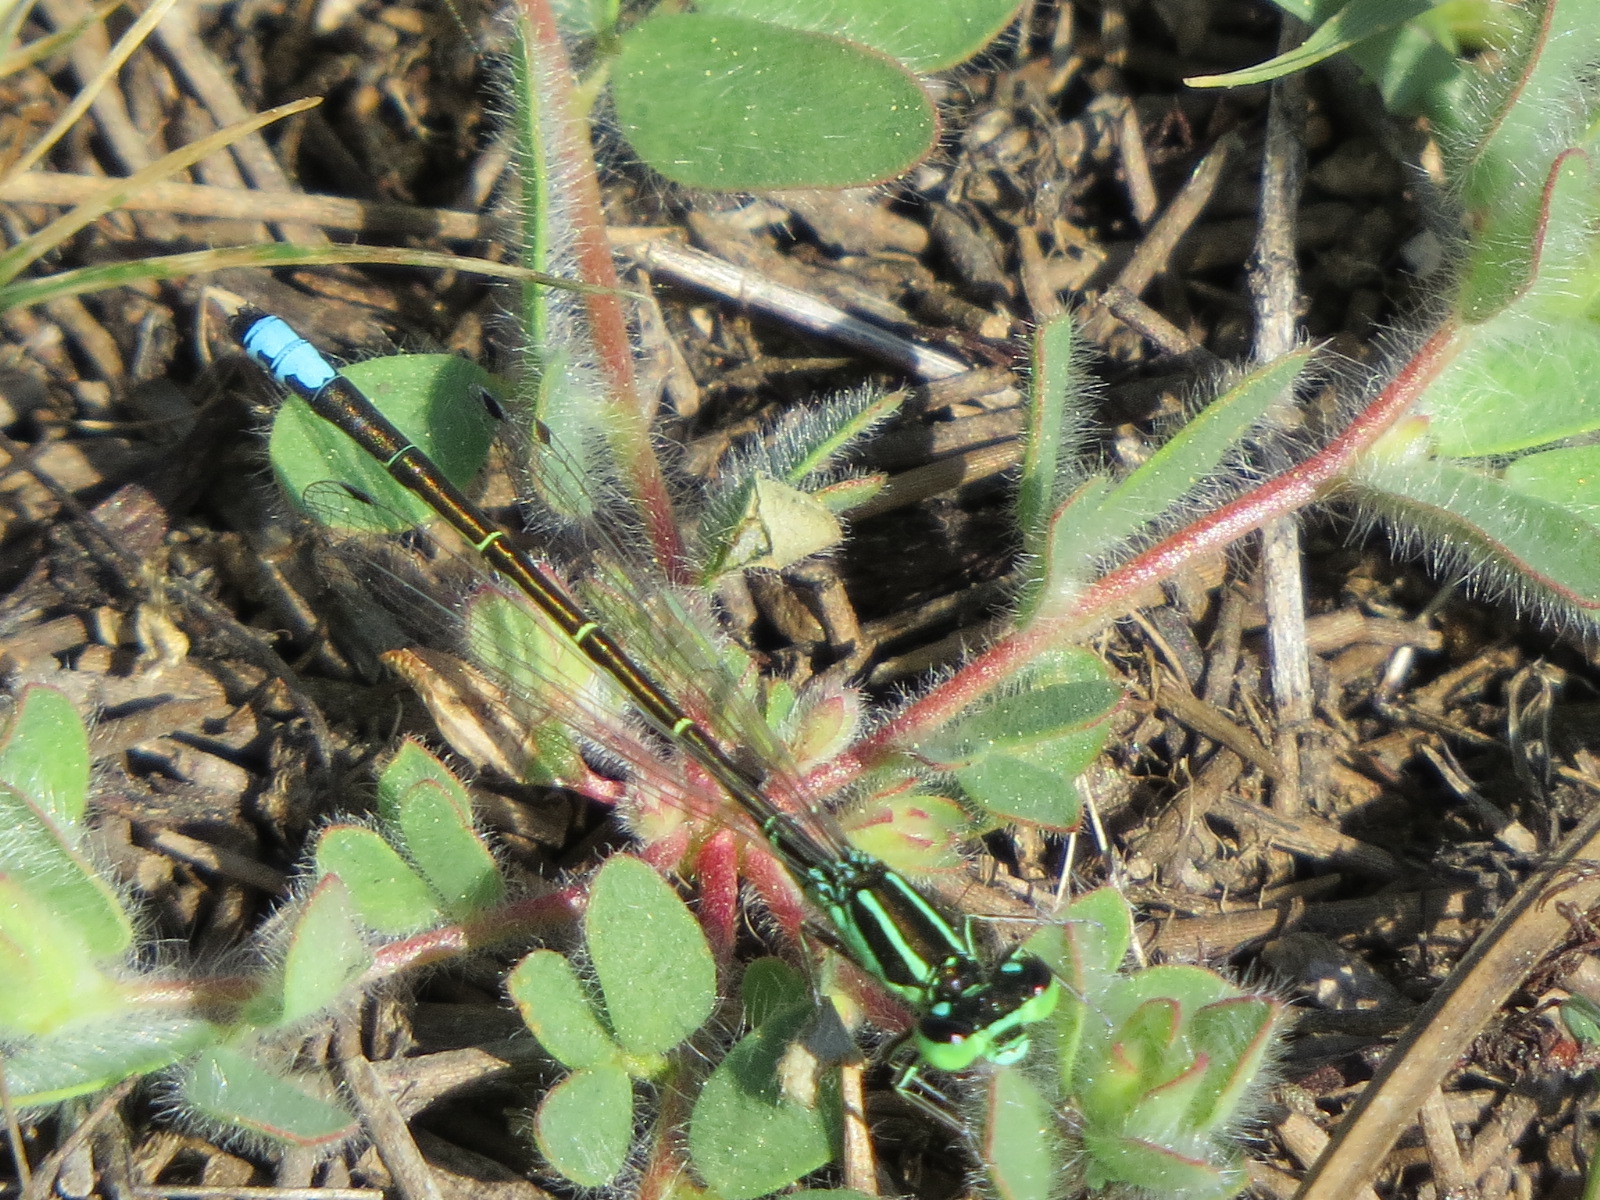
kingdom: Animalia
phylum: Arthropoda
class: Insecta
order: Odonata
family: Coenagrionidae
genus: Ischnura
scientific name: Ischnura perparva
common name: Western forktail
